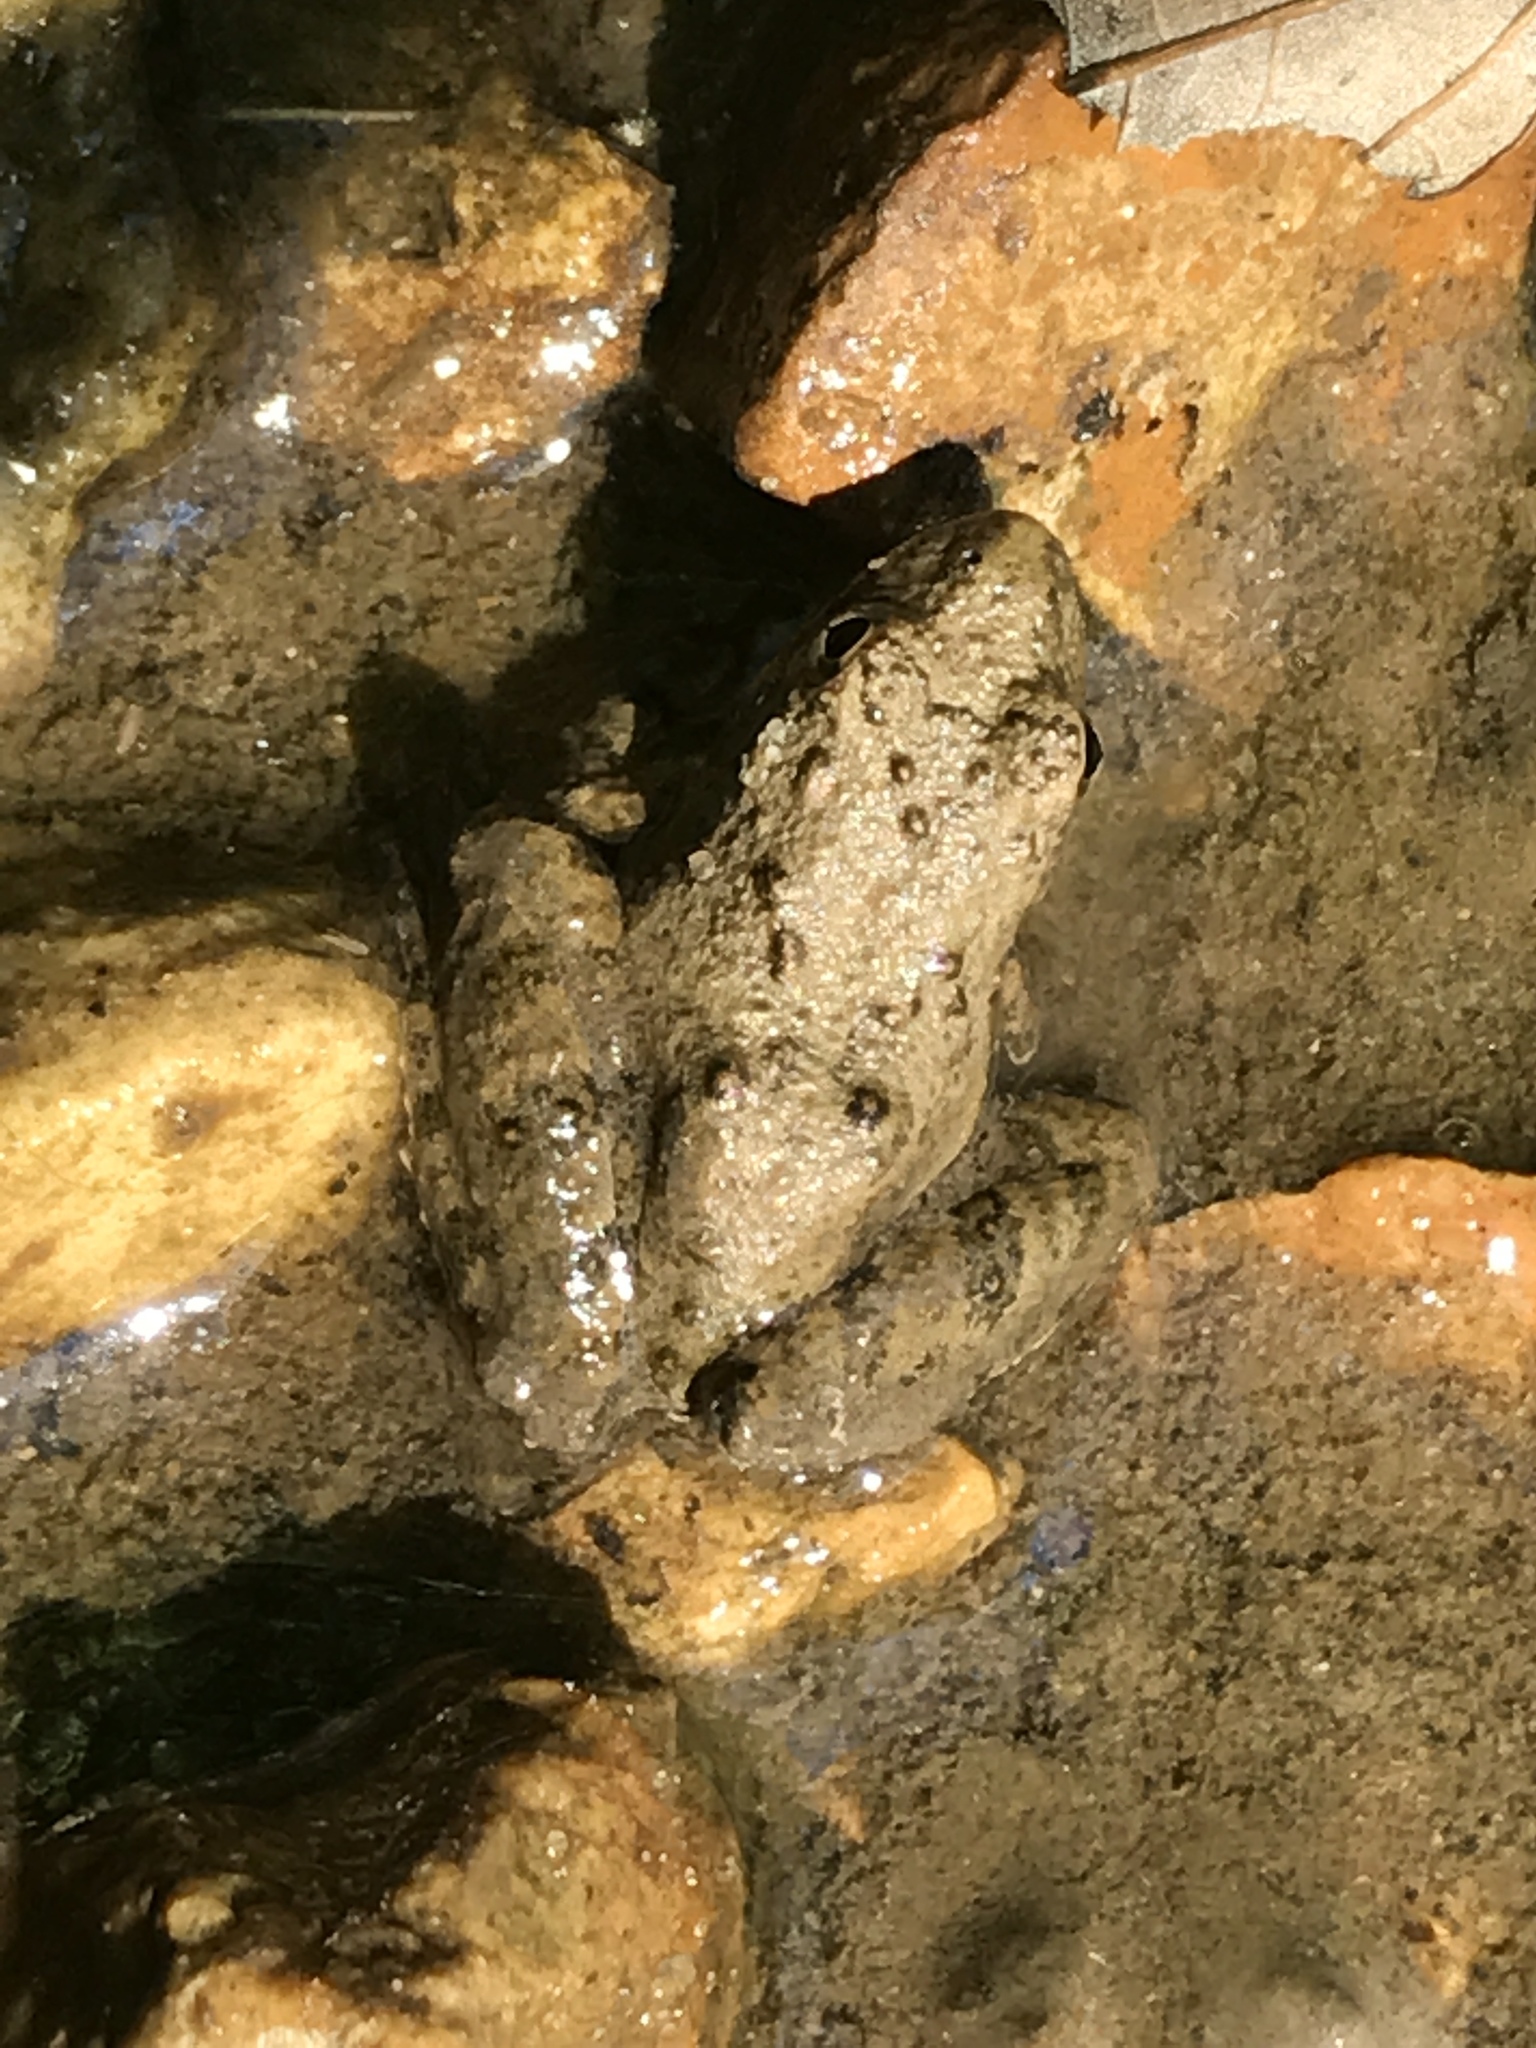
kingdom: Animalia
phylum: Chordata
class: Amphibia
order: Anura
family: Hylidae
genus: Acris
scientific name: Acris blanchardi
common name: Blanchard's cricket frog
